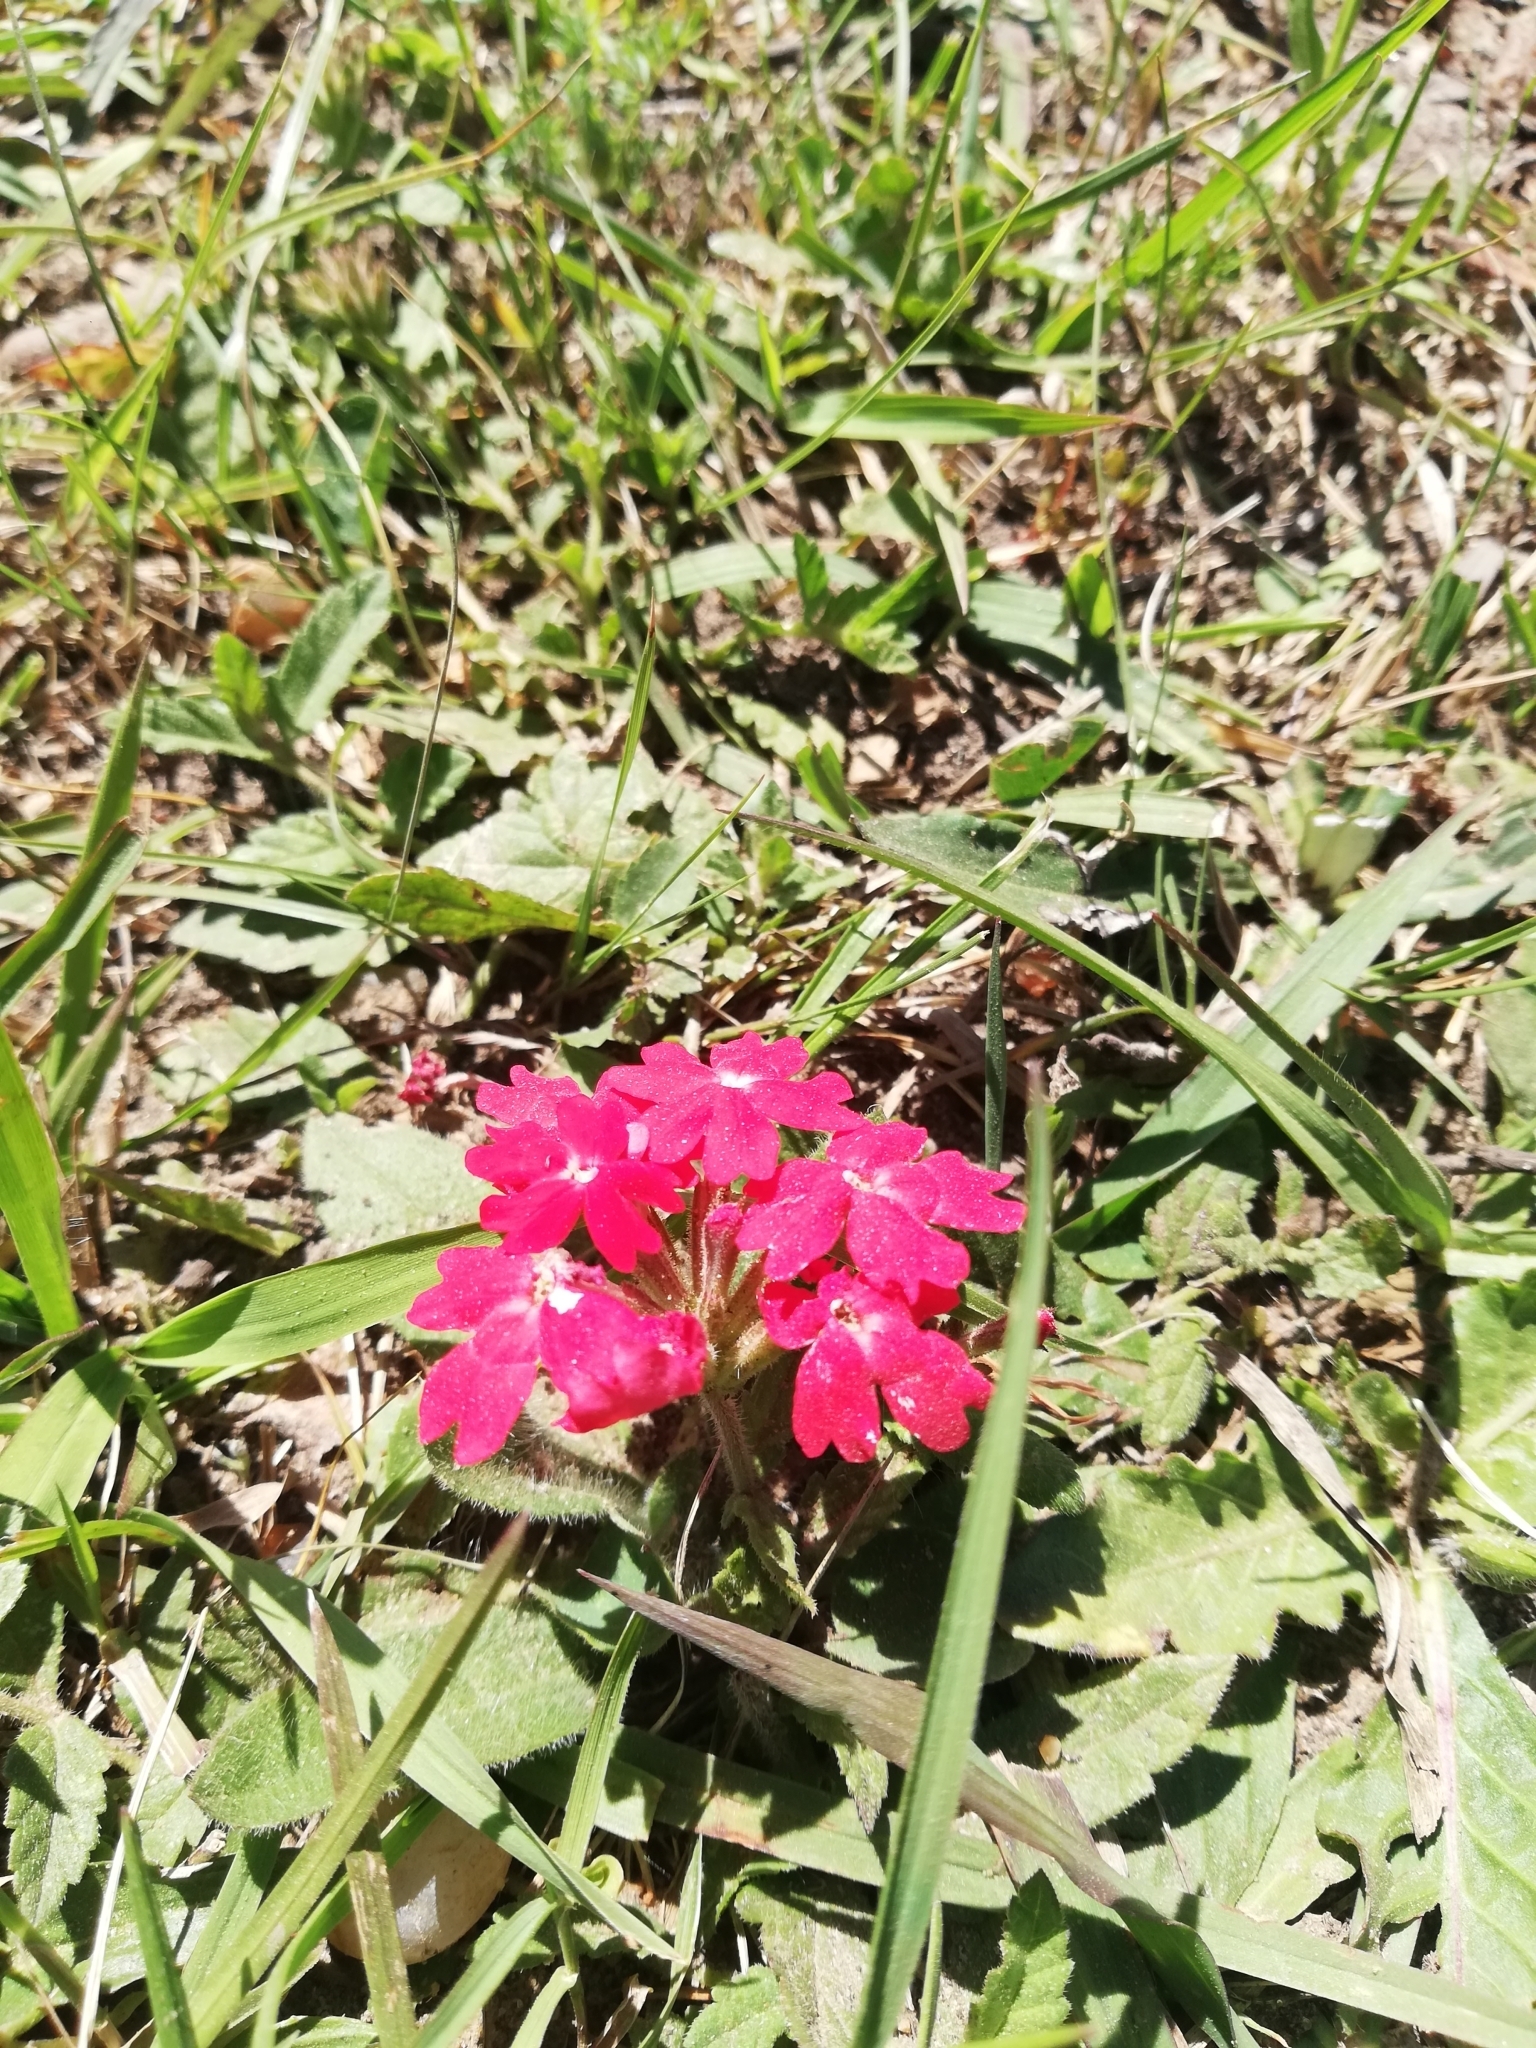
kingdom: Plantae
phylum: Tracheophyta
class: Magnoliopsida
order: Lamiales
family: Verbenaceae
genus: Verbena
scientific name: Verbena peruviana
